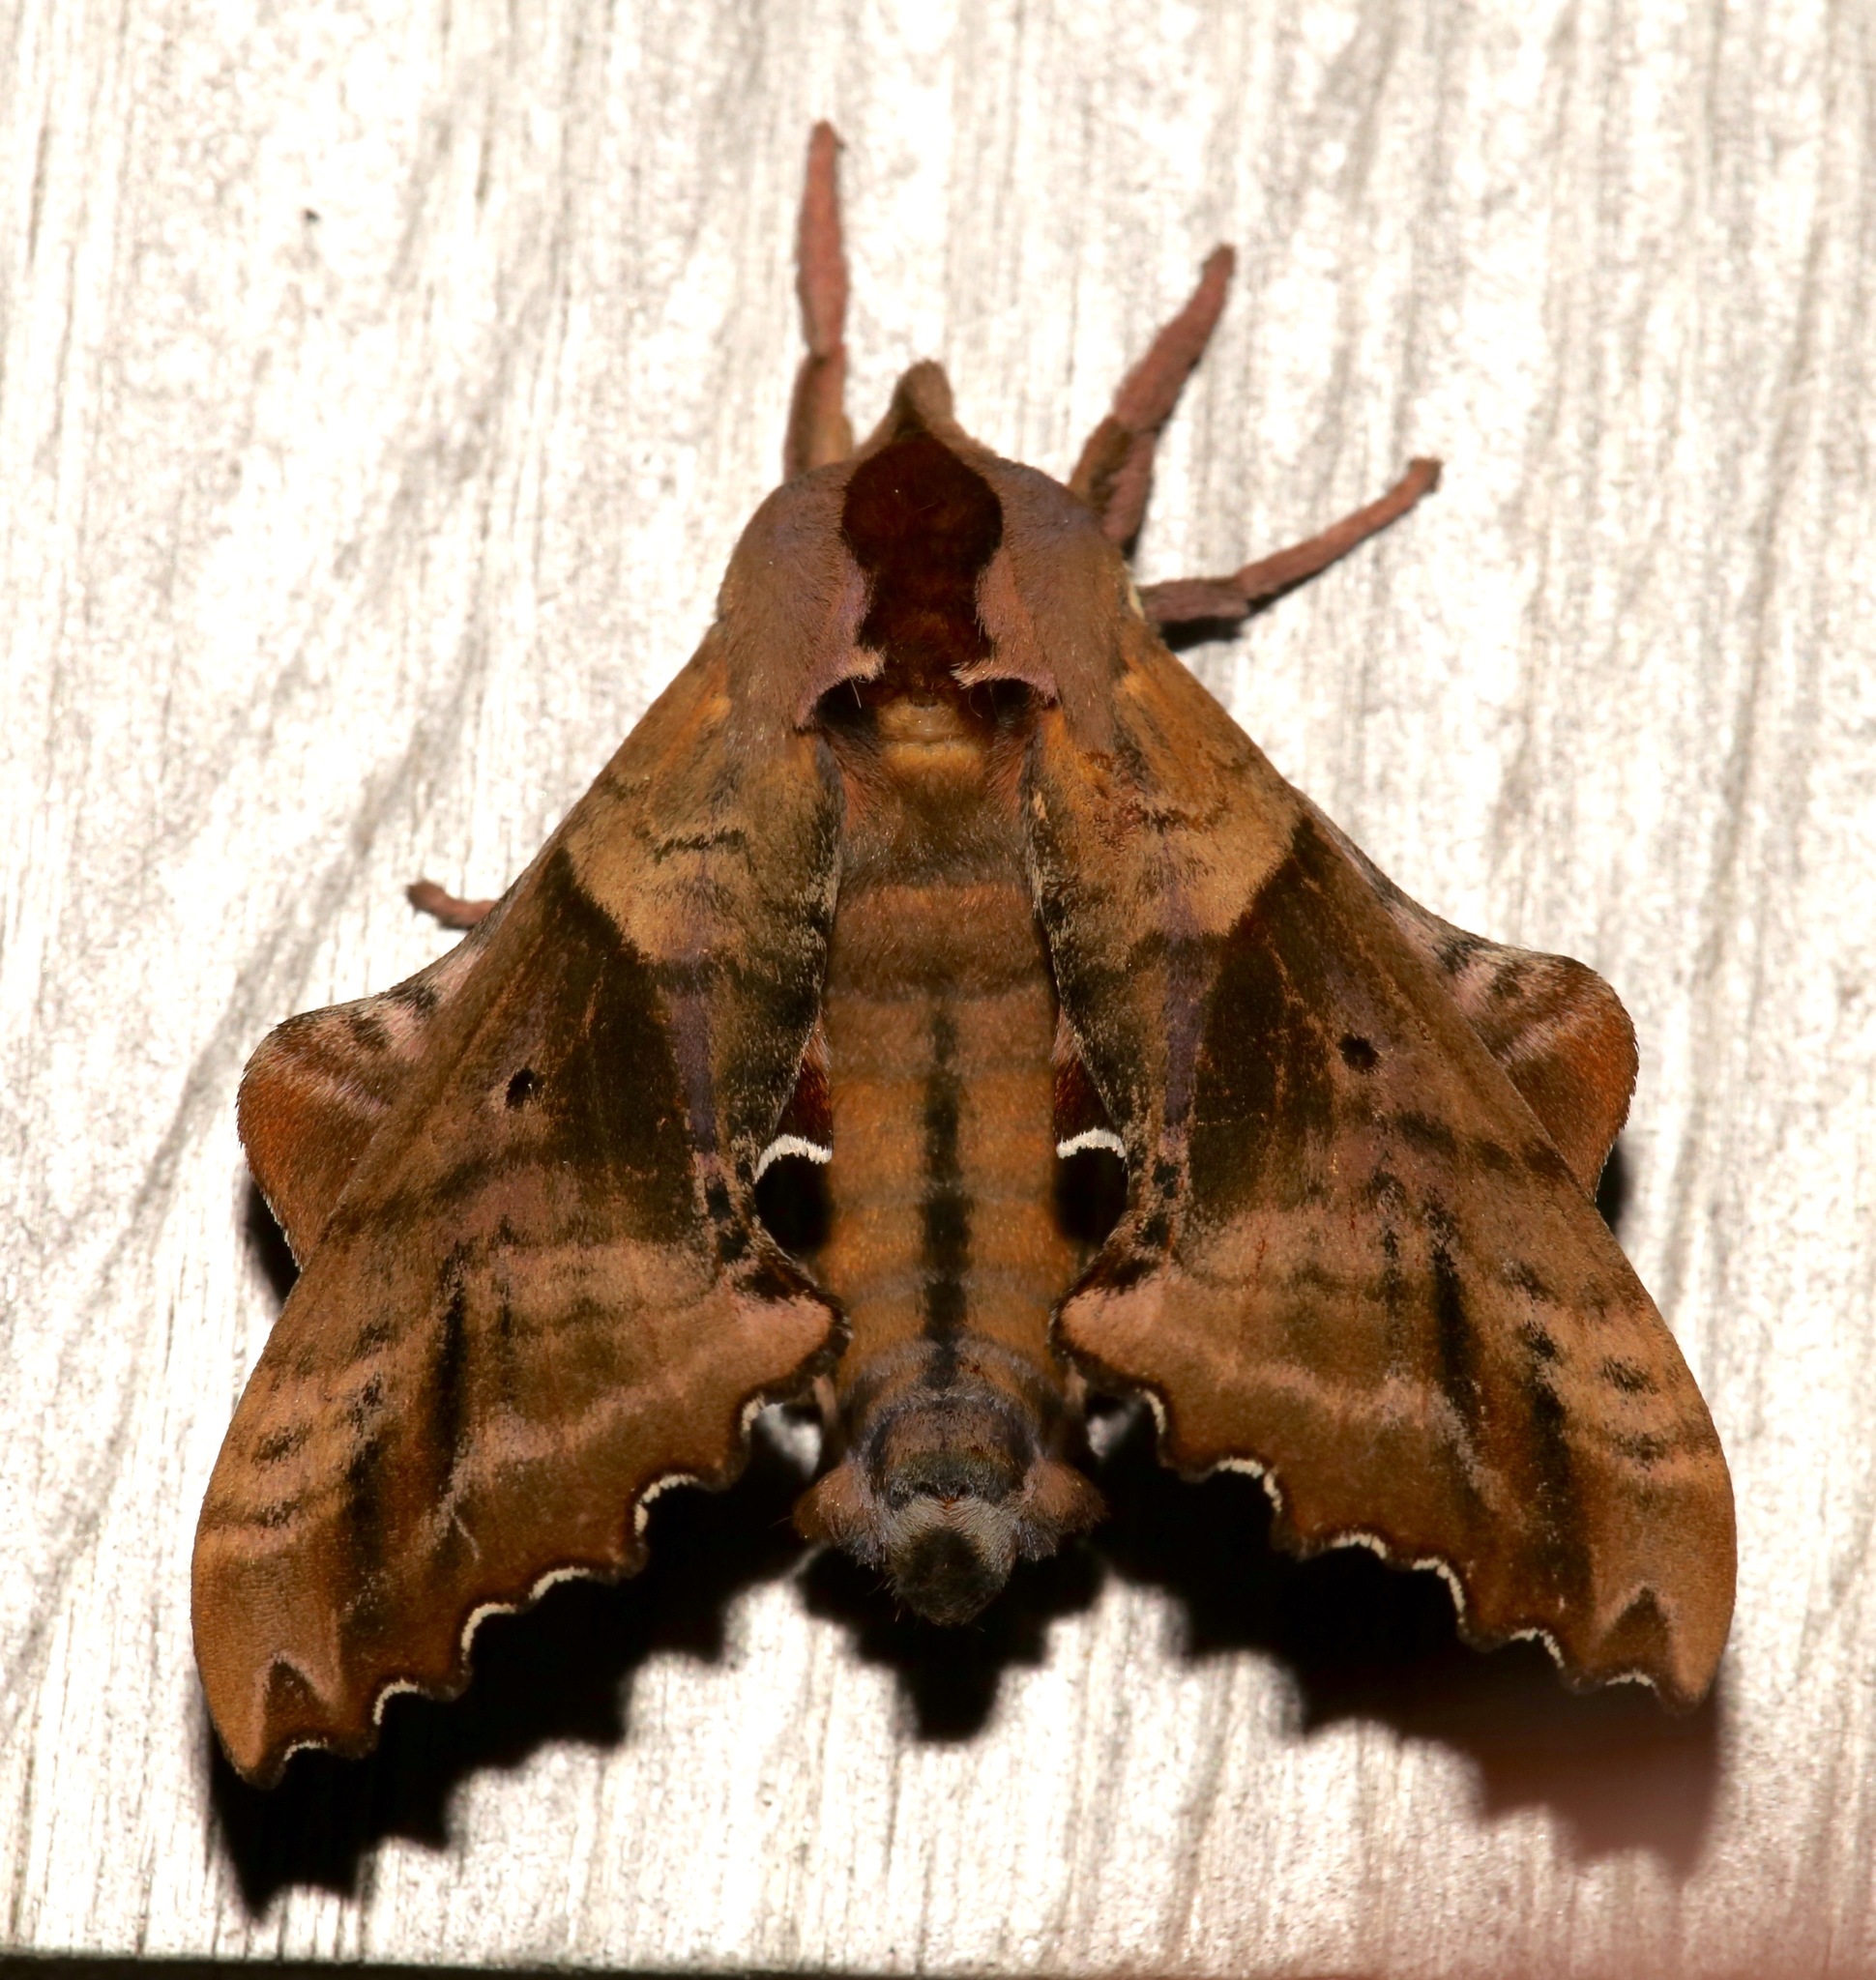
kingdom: Animalia
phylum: Arthropoda
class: Insecta
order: Lepidoptera
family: Sphingidae
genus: Paonias
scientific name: Paonias excaecata
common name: Blind-eyed sphinx
